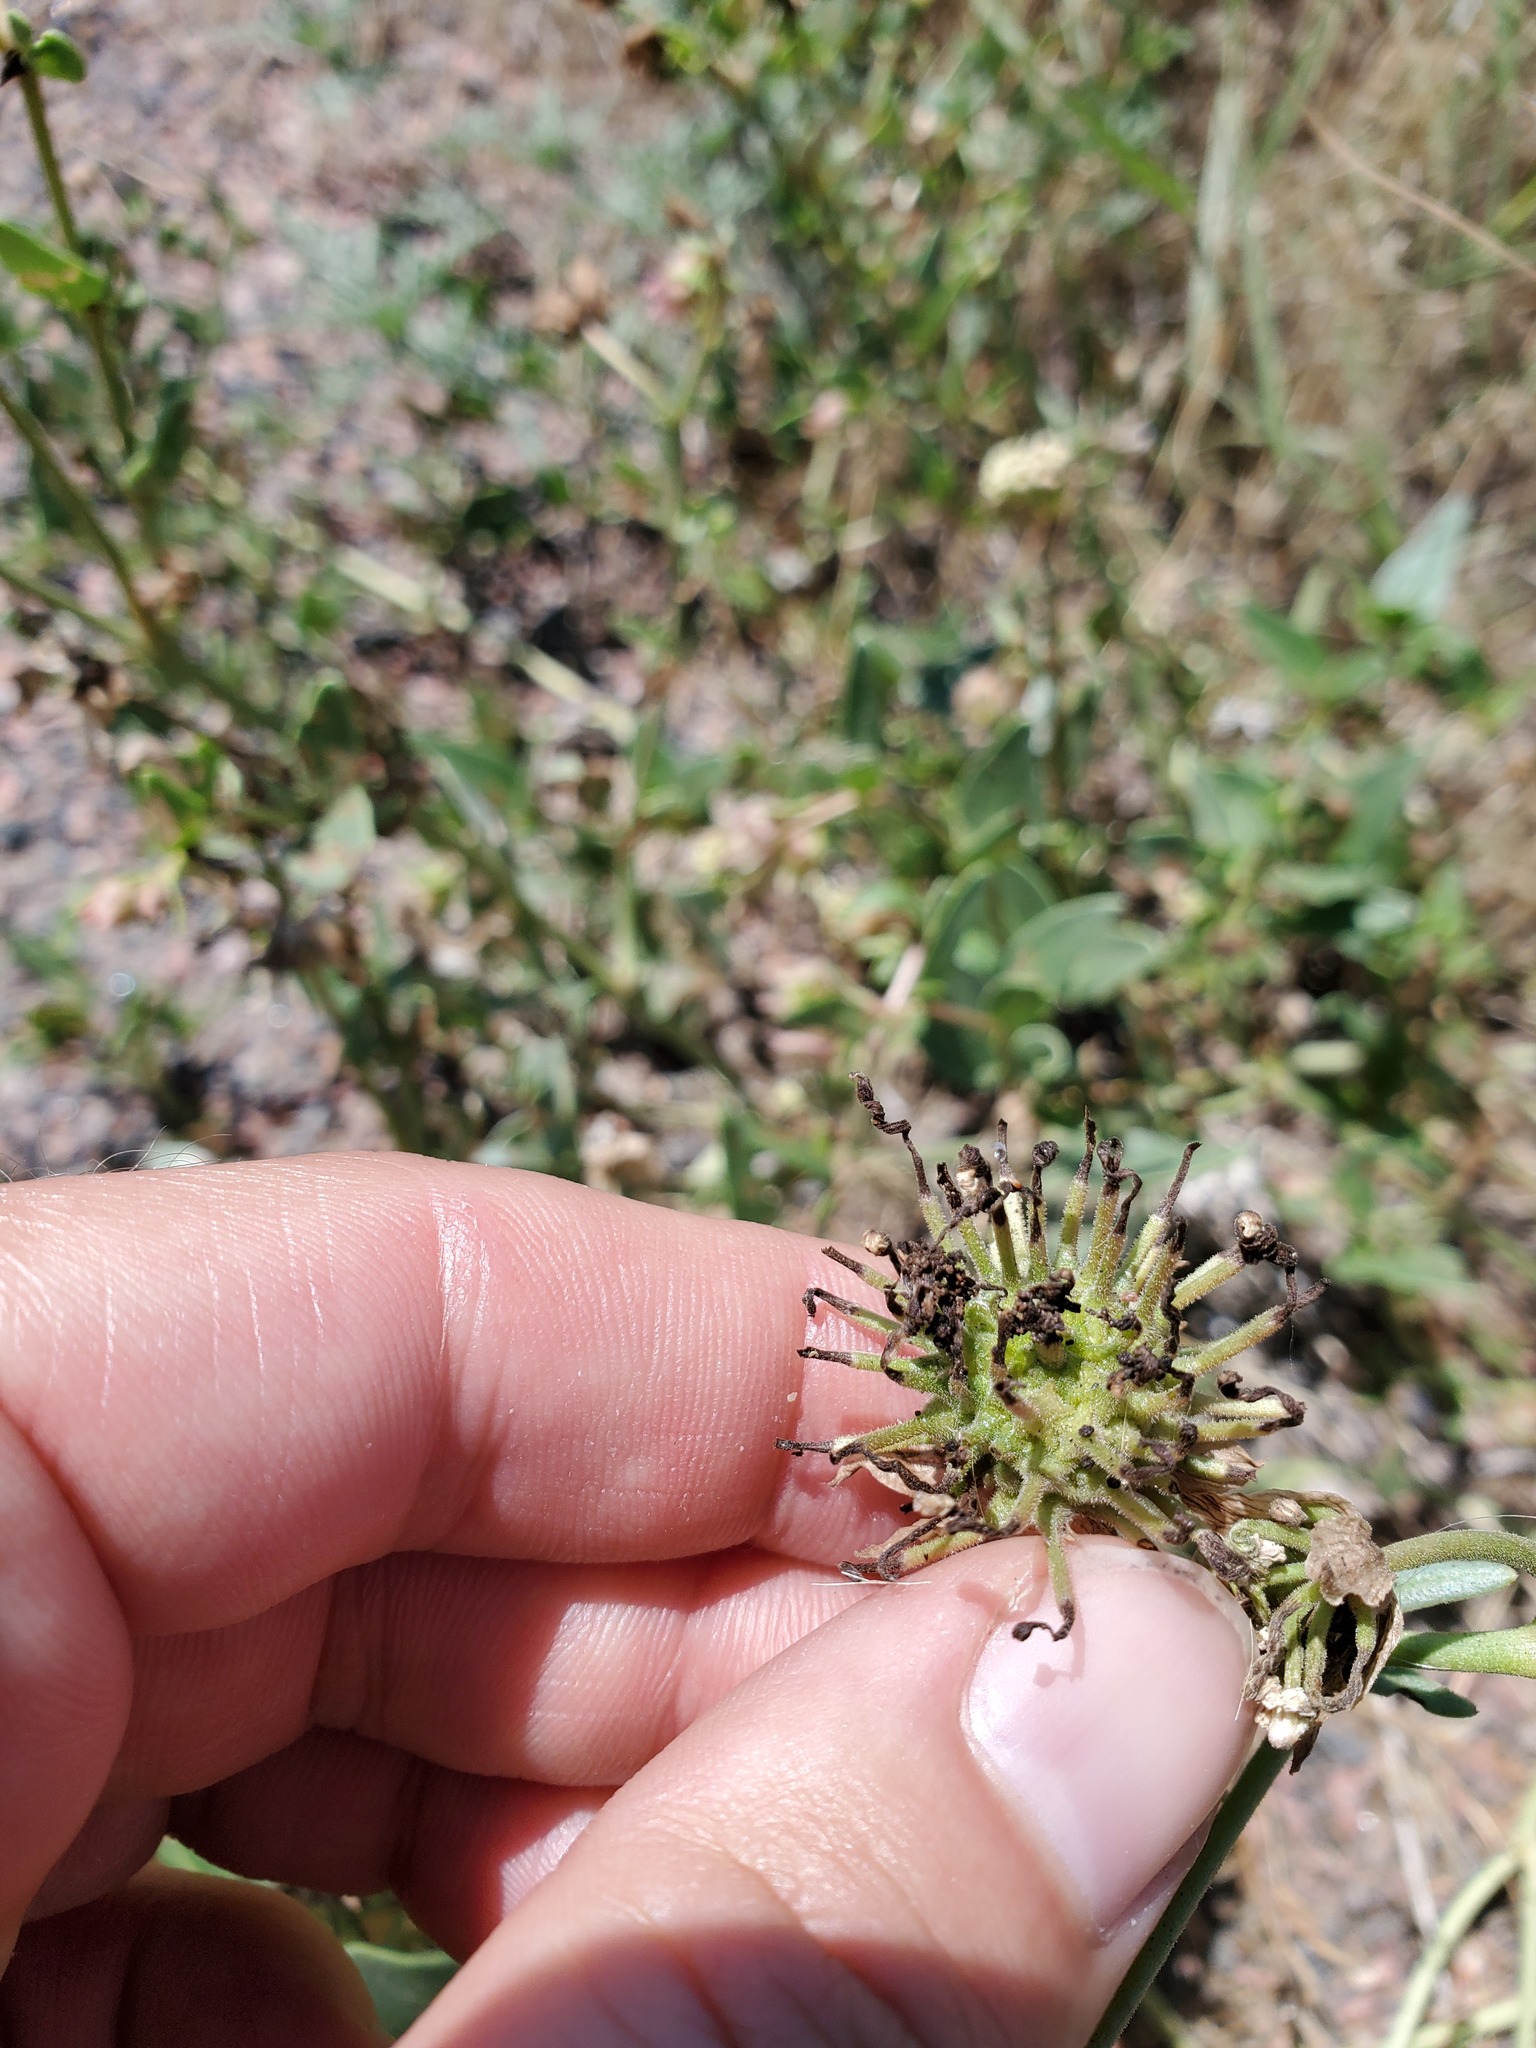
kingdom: Plantae
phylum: Tracheophyta
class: Magnoliopsida
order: Caryophyllales
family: Nyctaginaceae
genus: Abronia
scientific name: Abronia fragrans
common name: Fragrant sand-verbena
